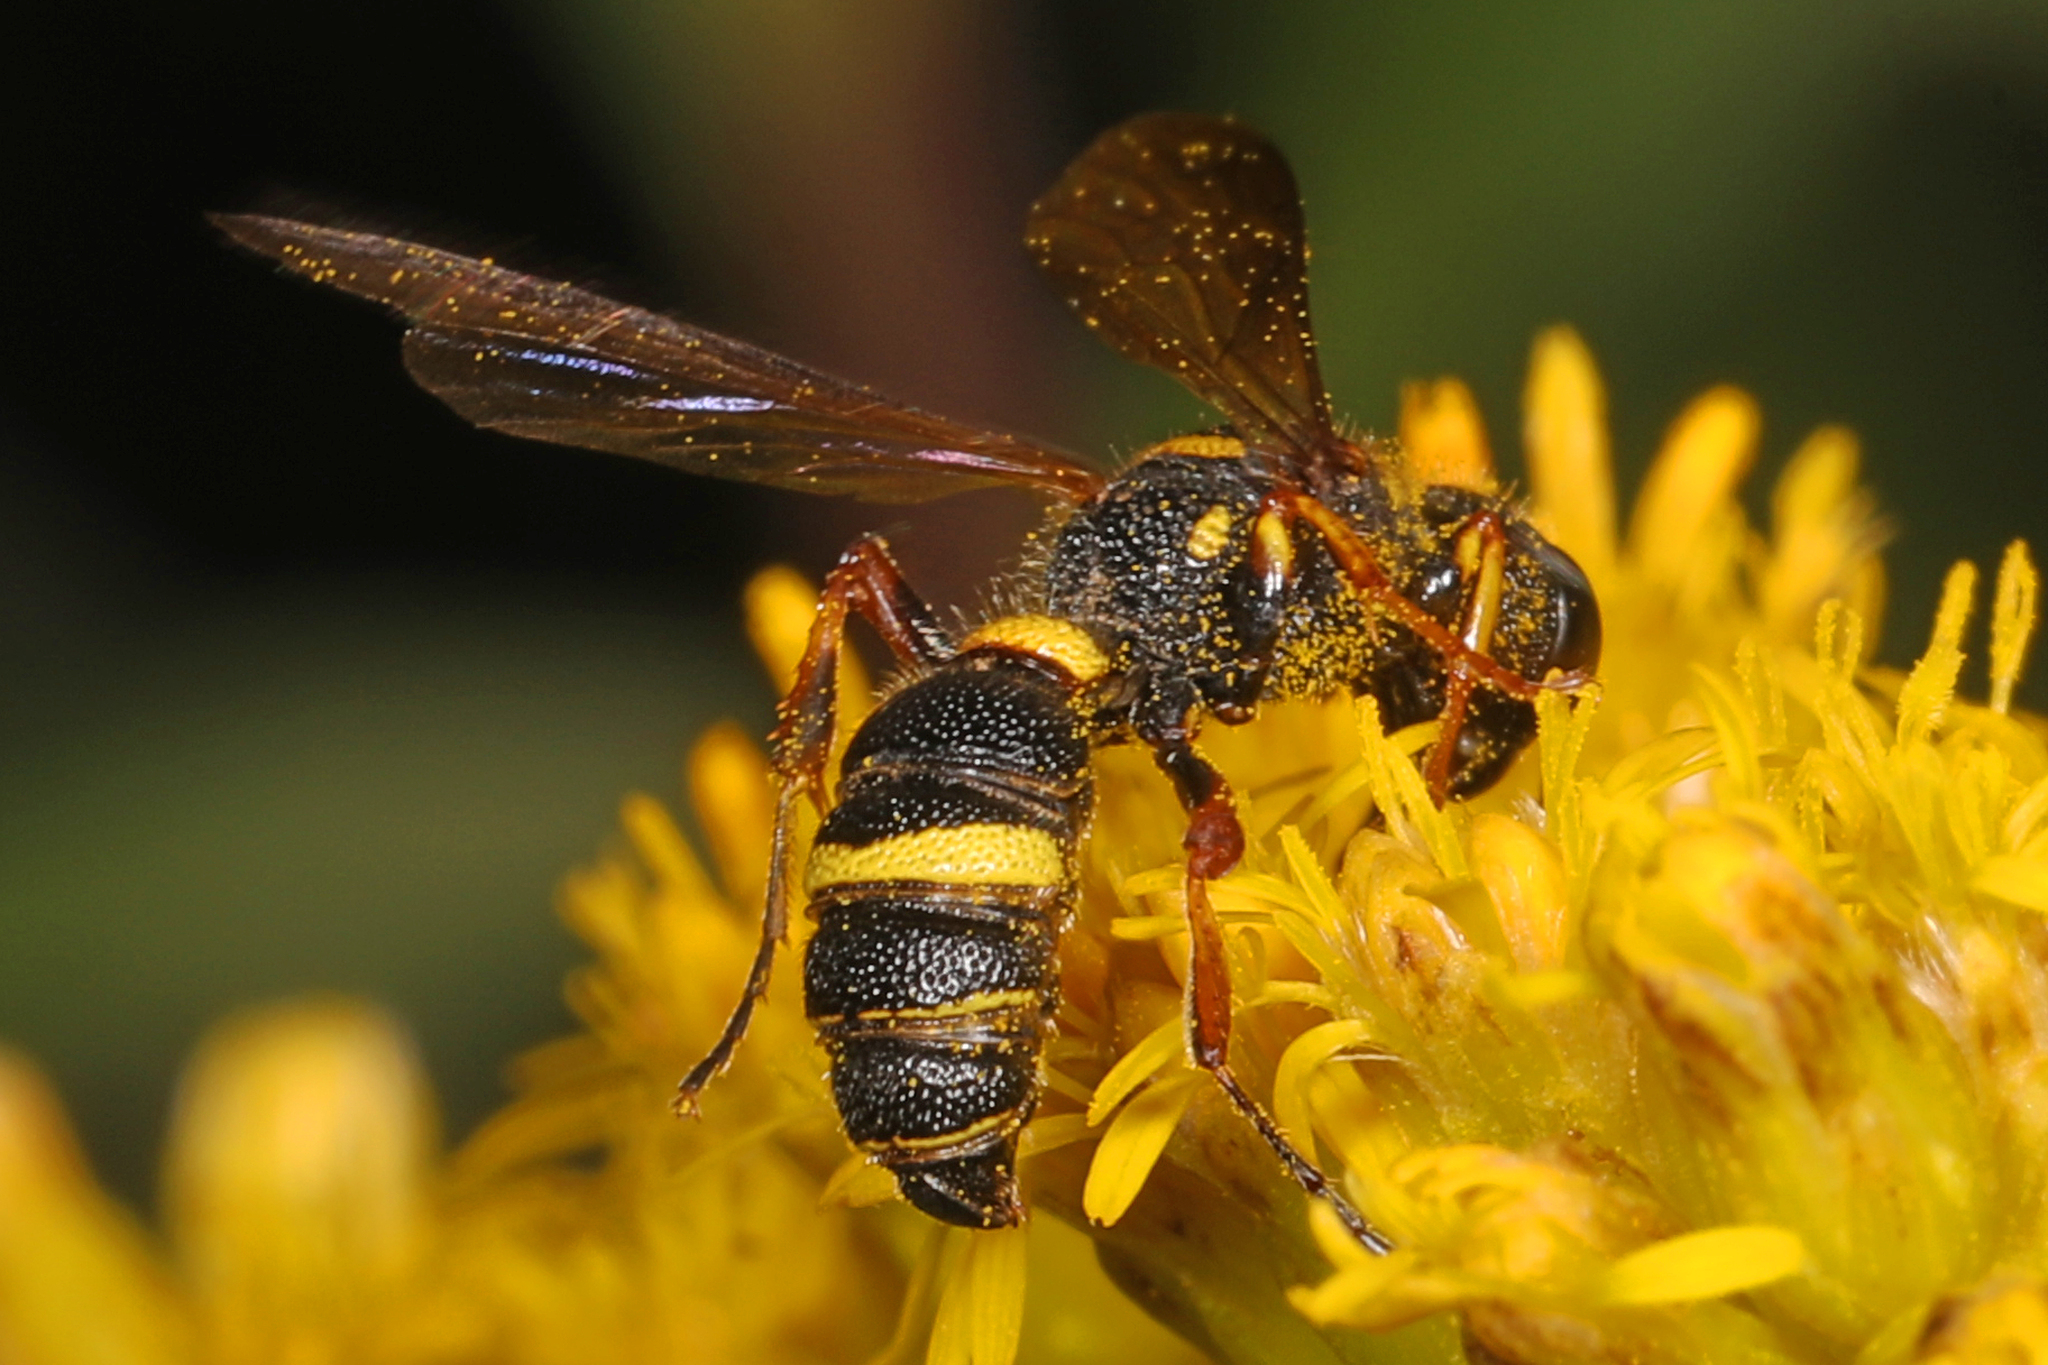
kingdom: Animalia
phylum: Arthropoda
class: Insecta
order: Hymenoptera
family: Crabronidae
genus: Cerceris
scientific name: Cerceris insolita
